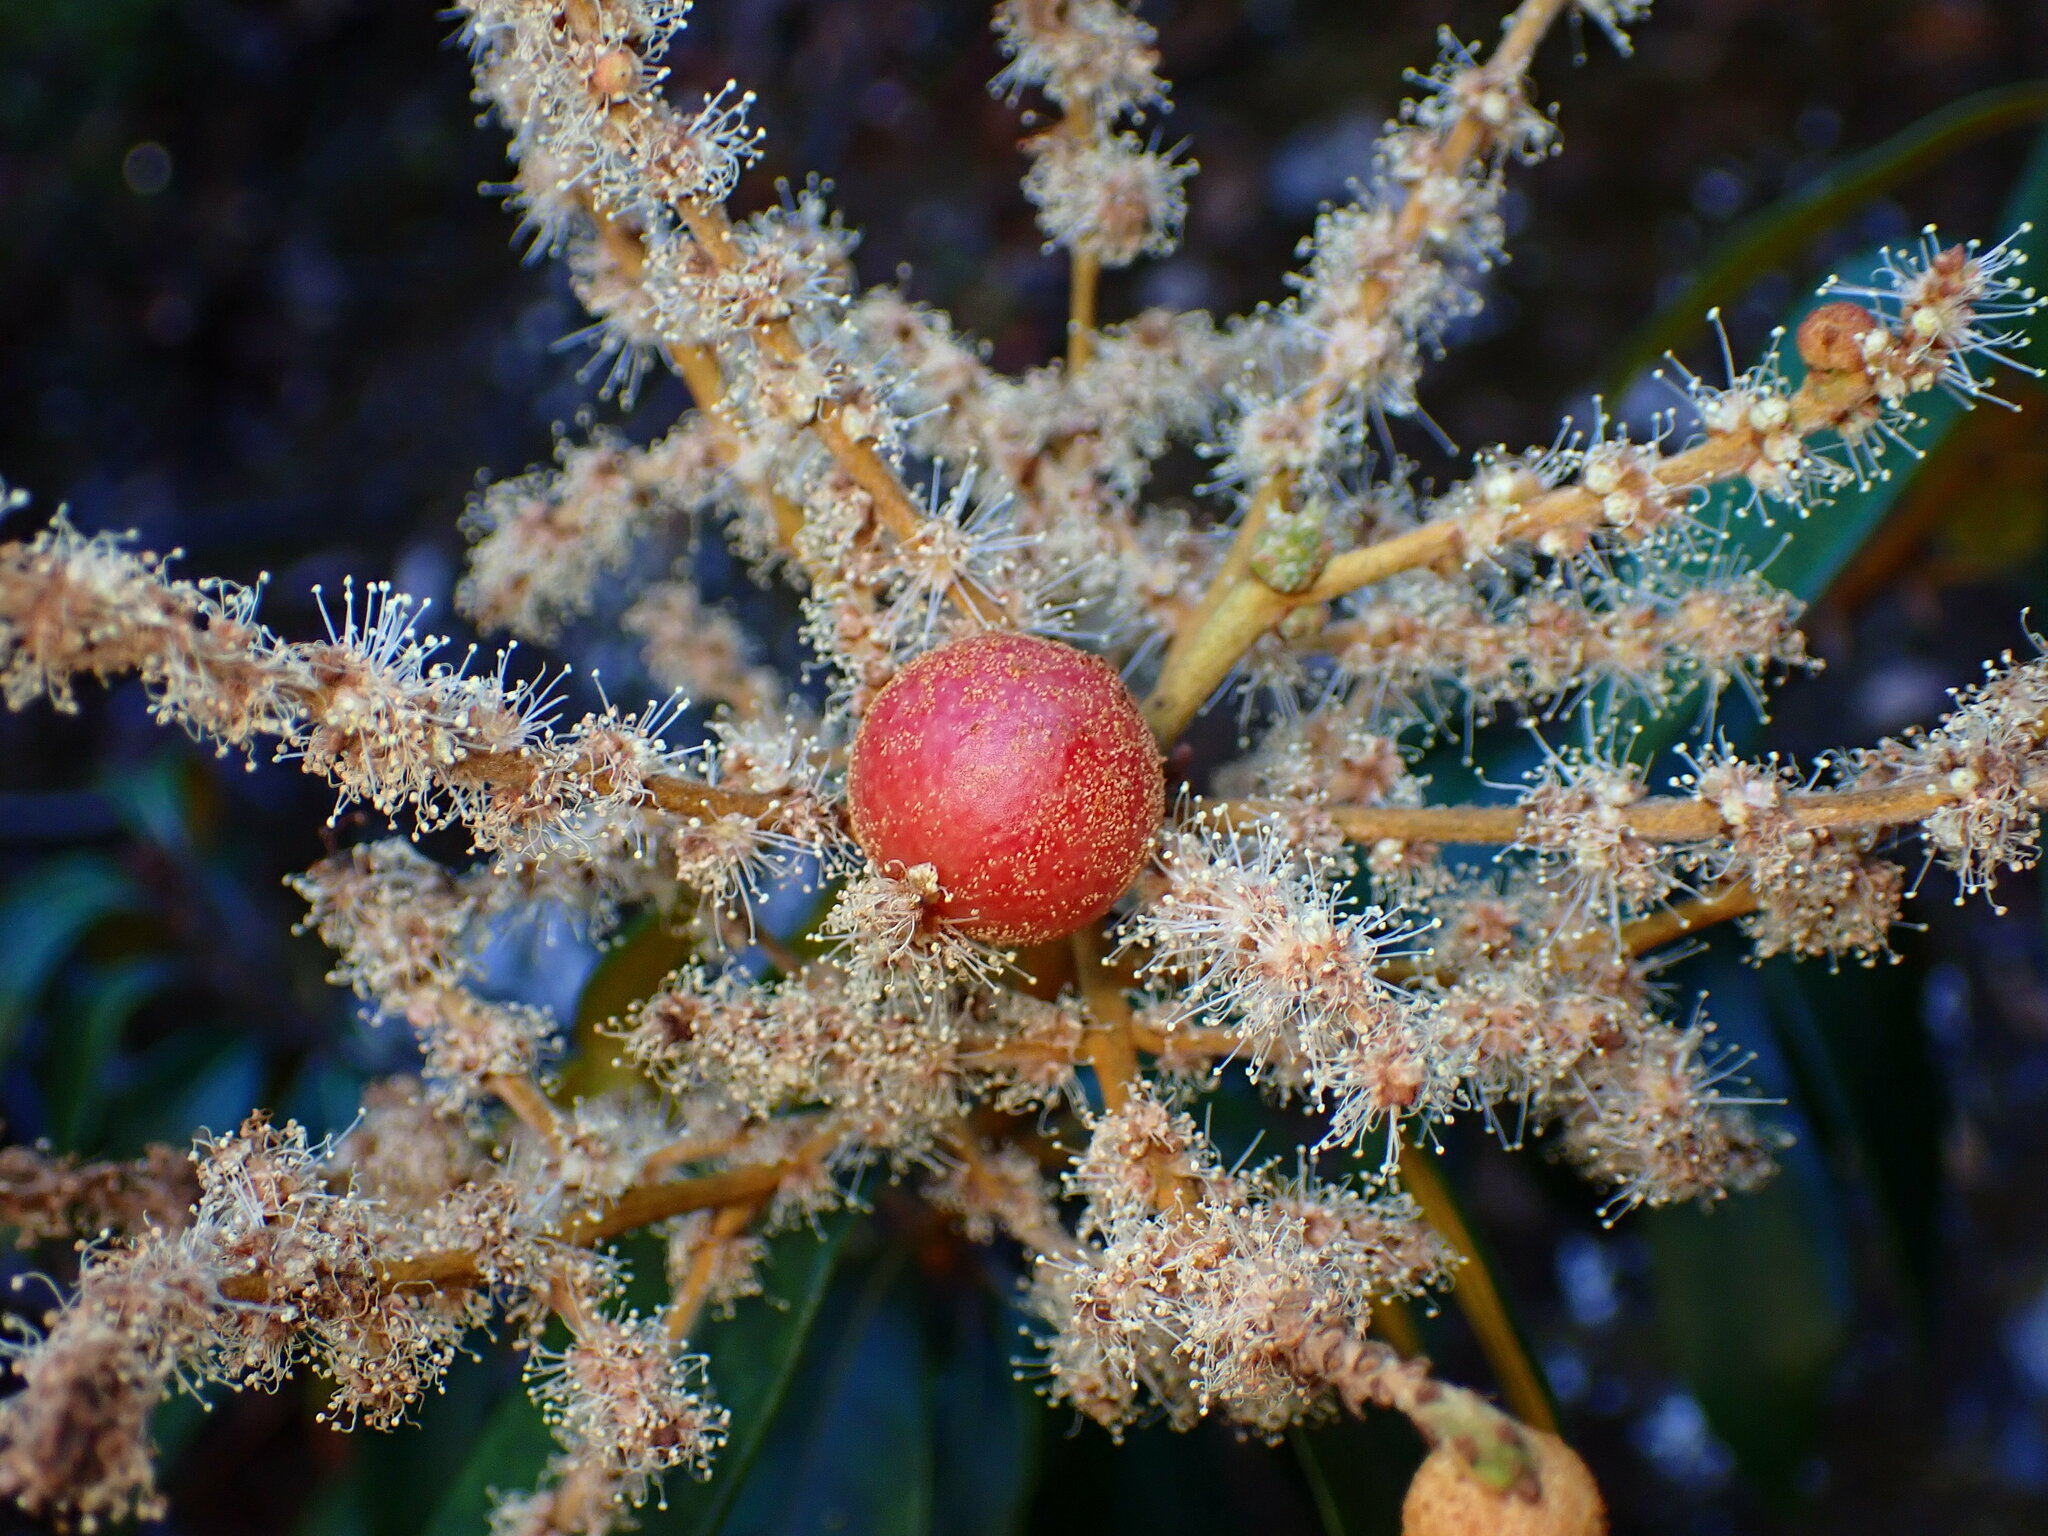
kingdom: Animalia
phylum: Arthropoda
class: Insecta
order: Hymenoptera
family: Cynipidae
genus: Synergus
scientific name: Synergus castanopsidis
